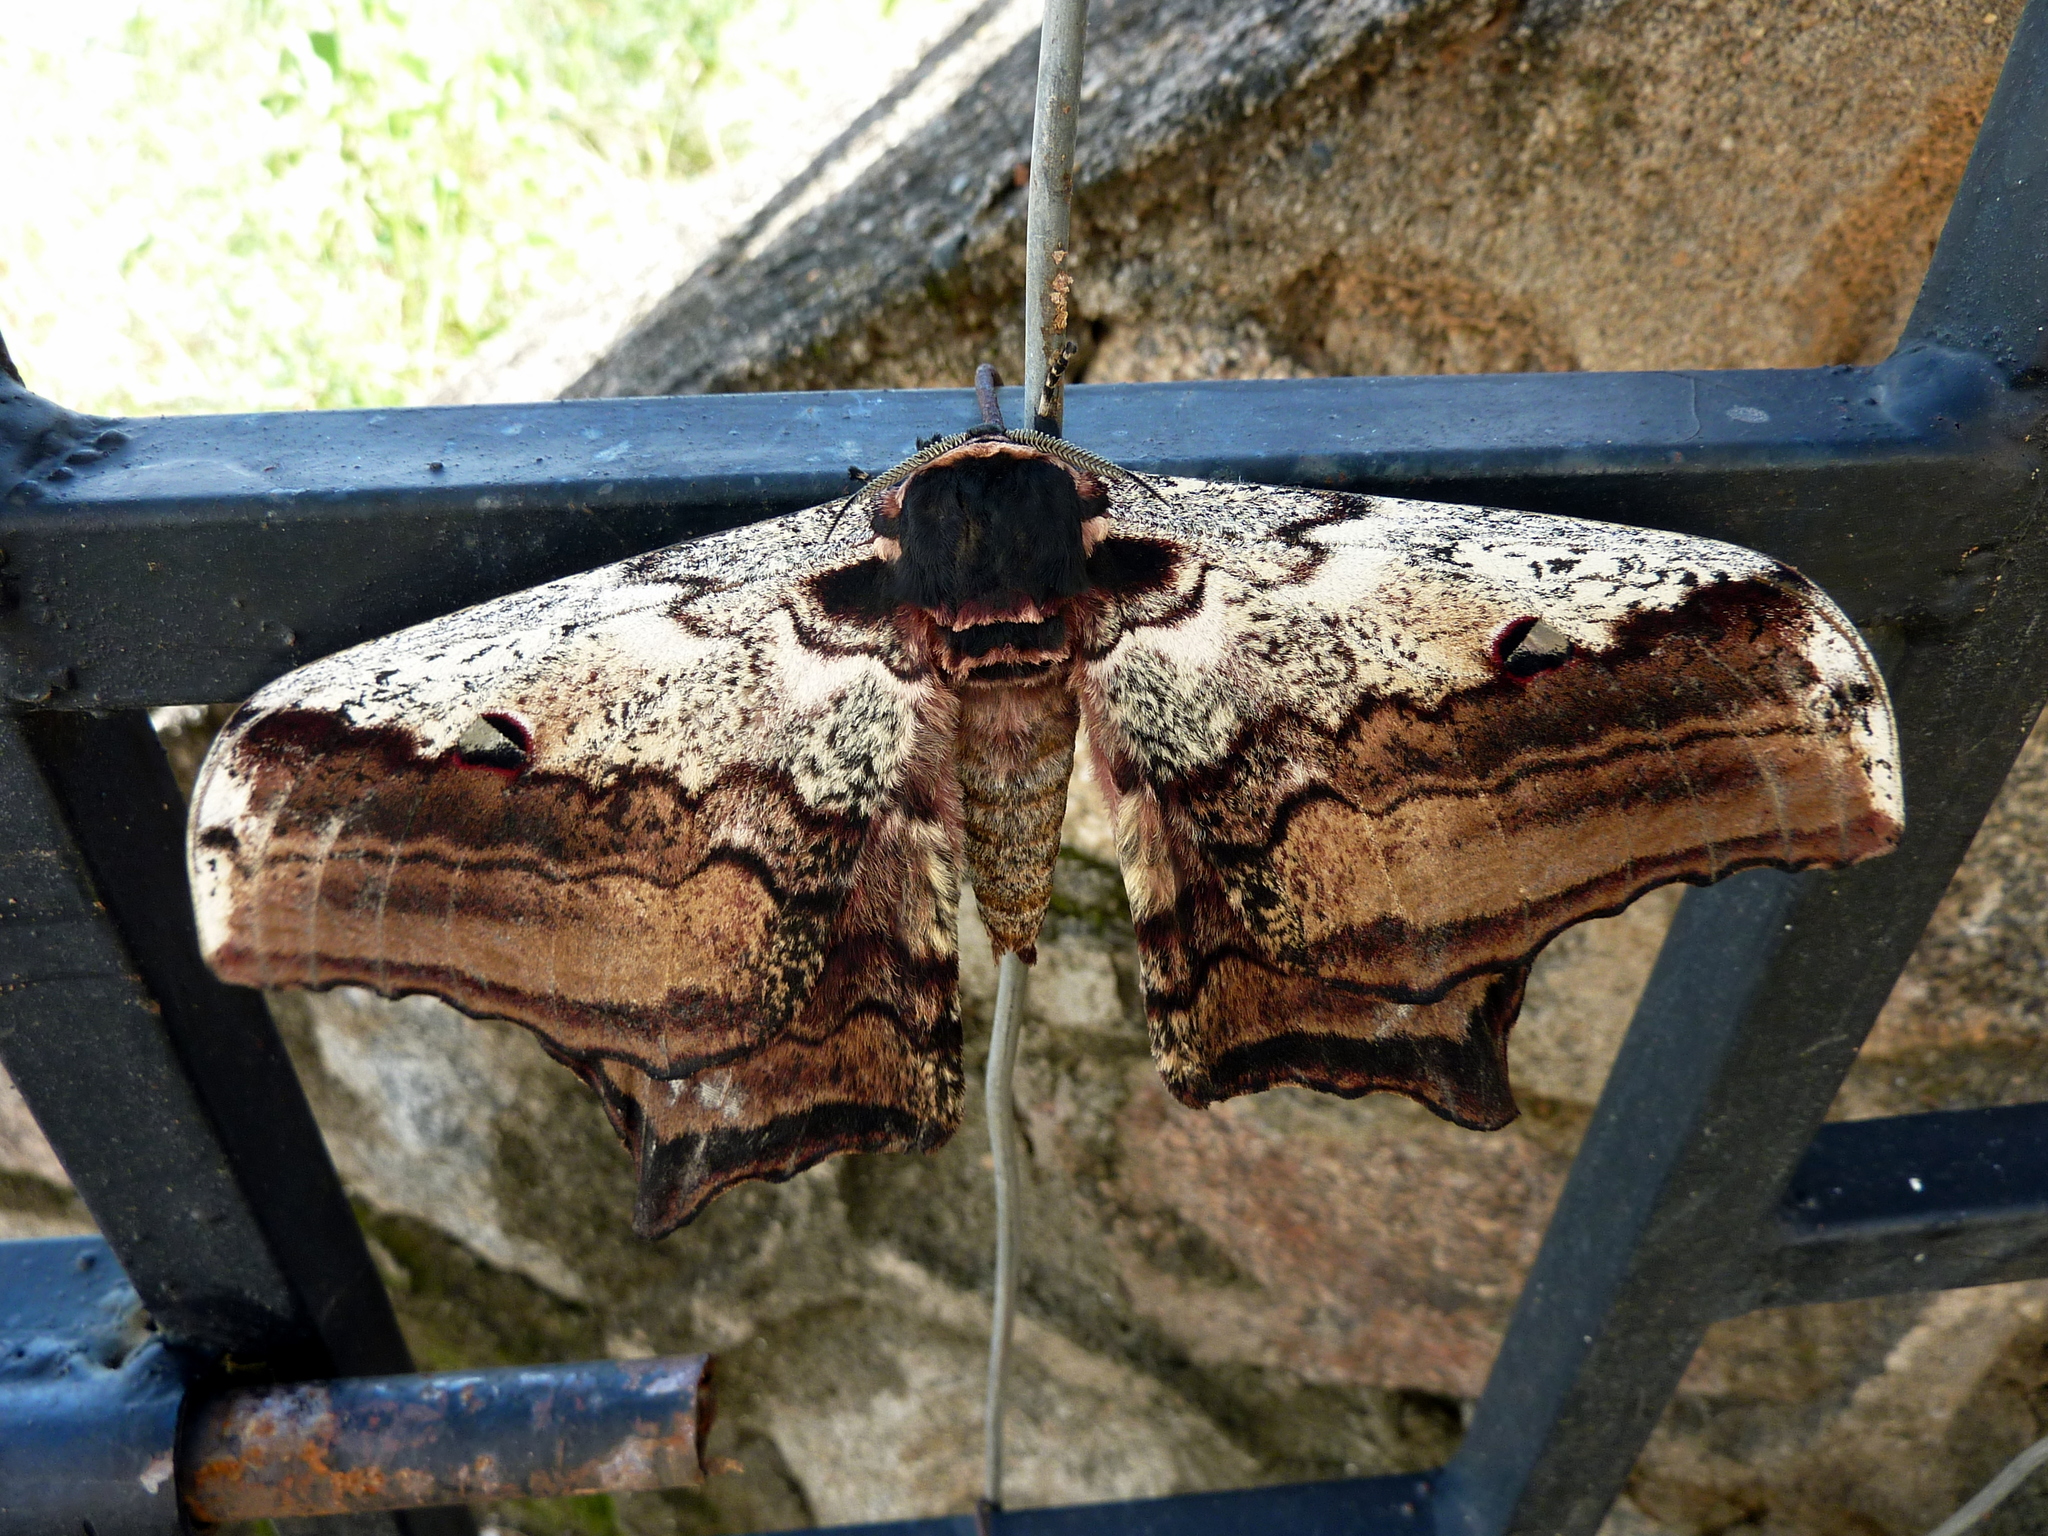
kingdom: Animalia
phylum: Arthropoda
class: Insecta
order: Lepidoptera
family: Saturniidae
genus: Athletes
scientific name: Athletes gigas
